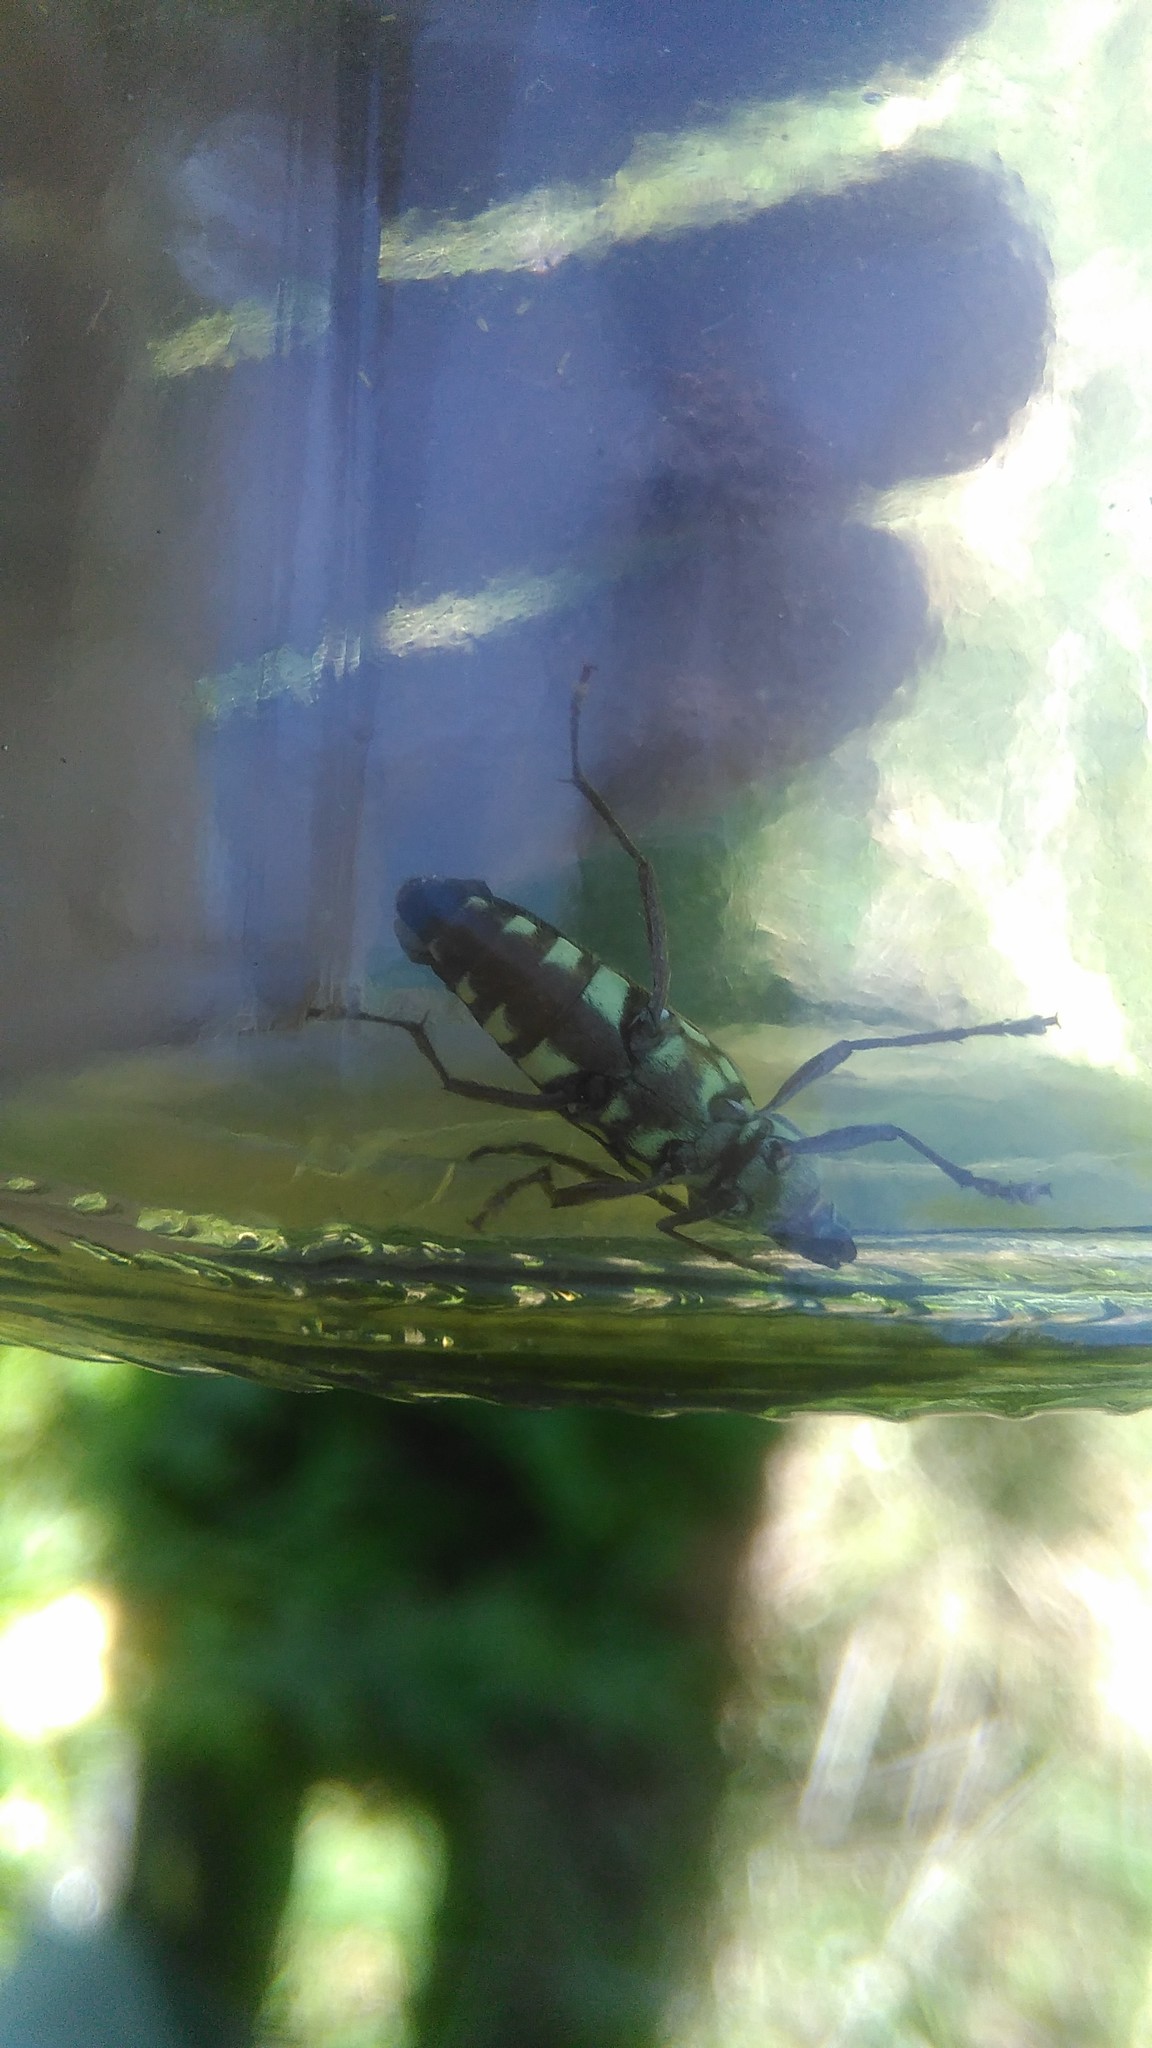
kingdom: Animalia
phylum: Arthropoda
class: Insecta
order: Coleoptera
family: Cerambycidae
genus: Megacyllene
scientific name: Megacyllene acuta
